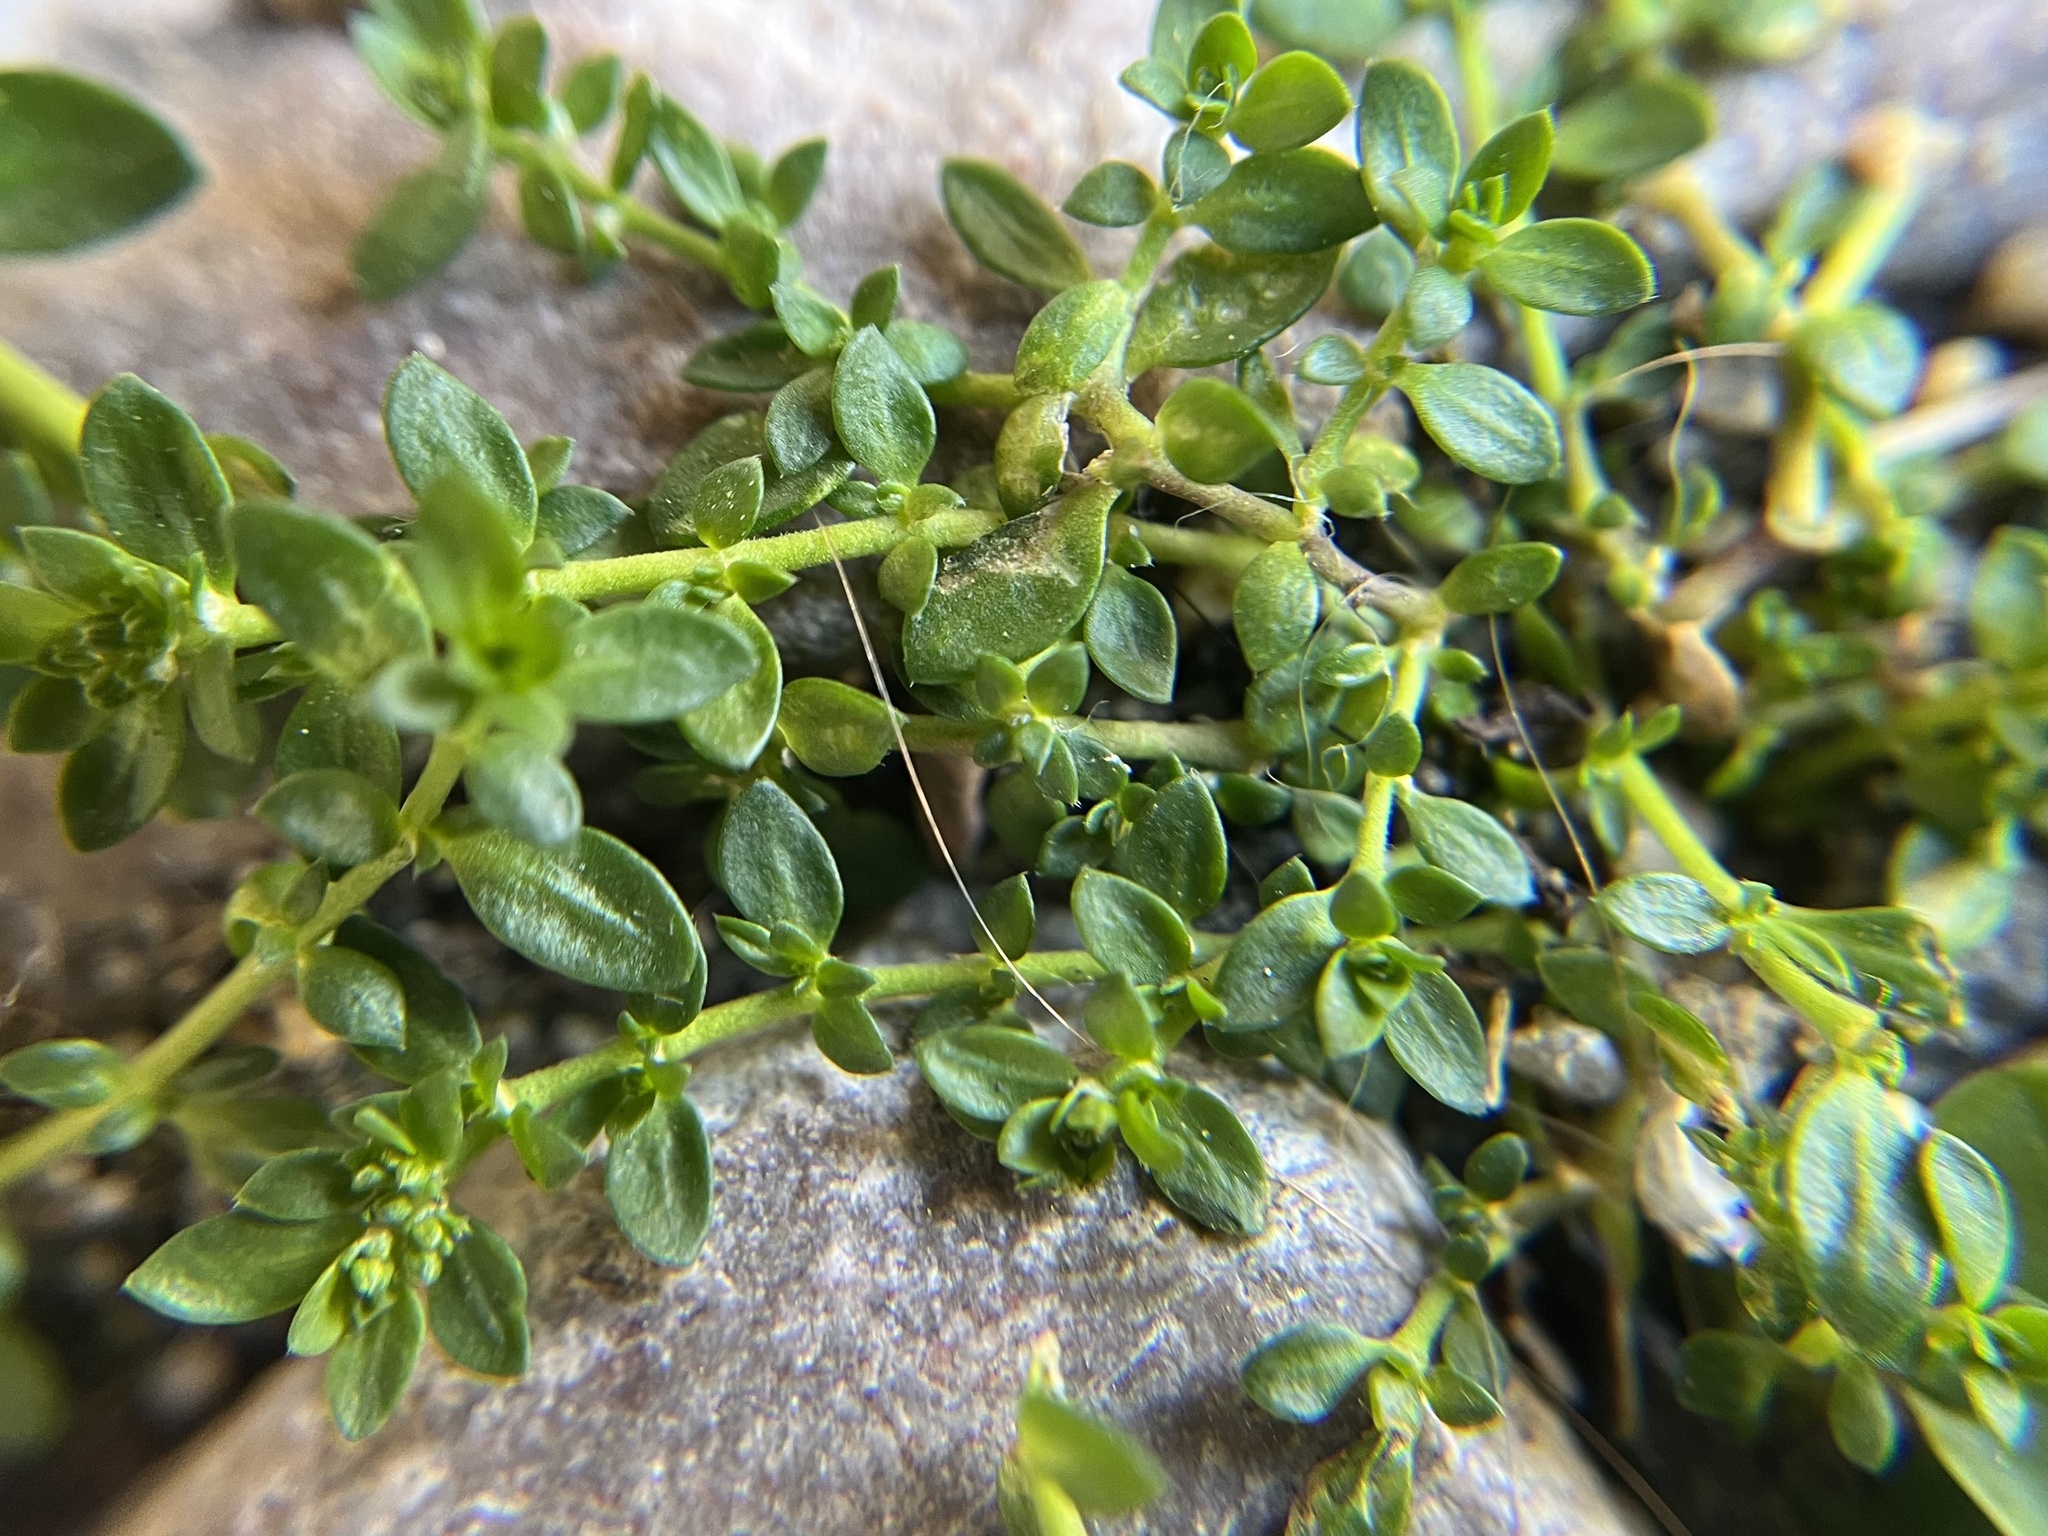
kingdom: Plantae
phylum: Tracheophyta
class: Magnoliopsida
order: Caryophyllales
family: Caryophyllaceae
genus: Herniaria
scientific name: Herniaria glabra
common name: Smooth rupturewort
